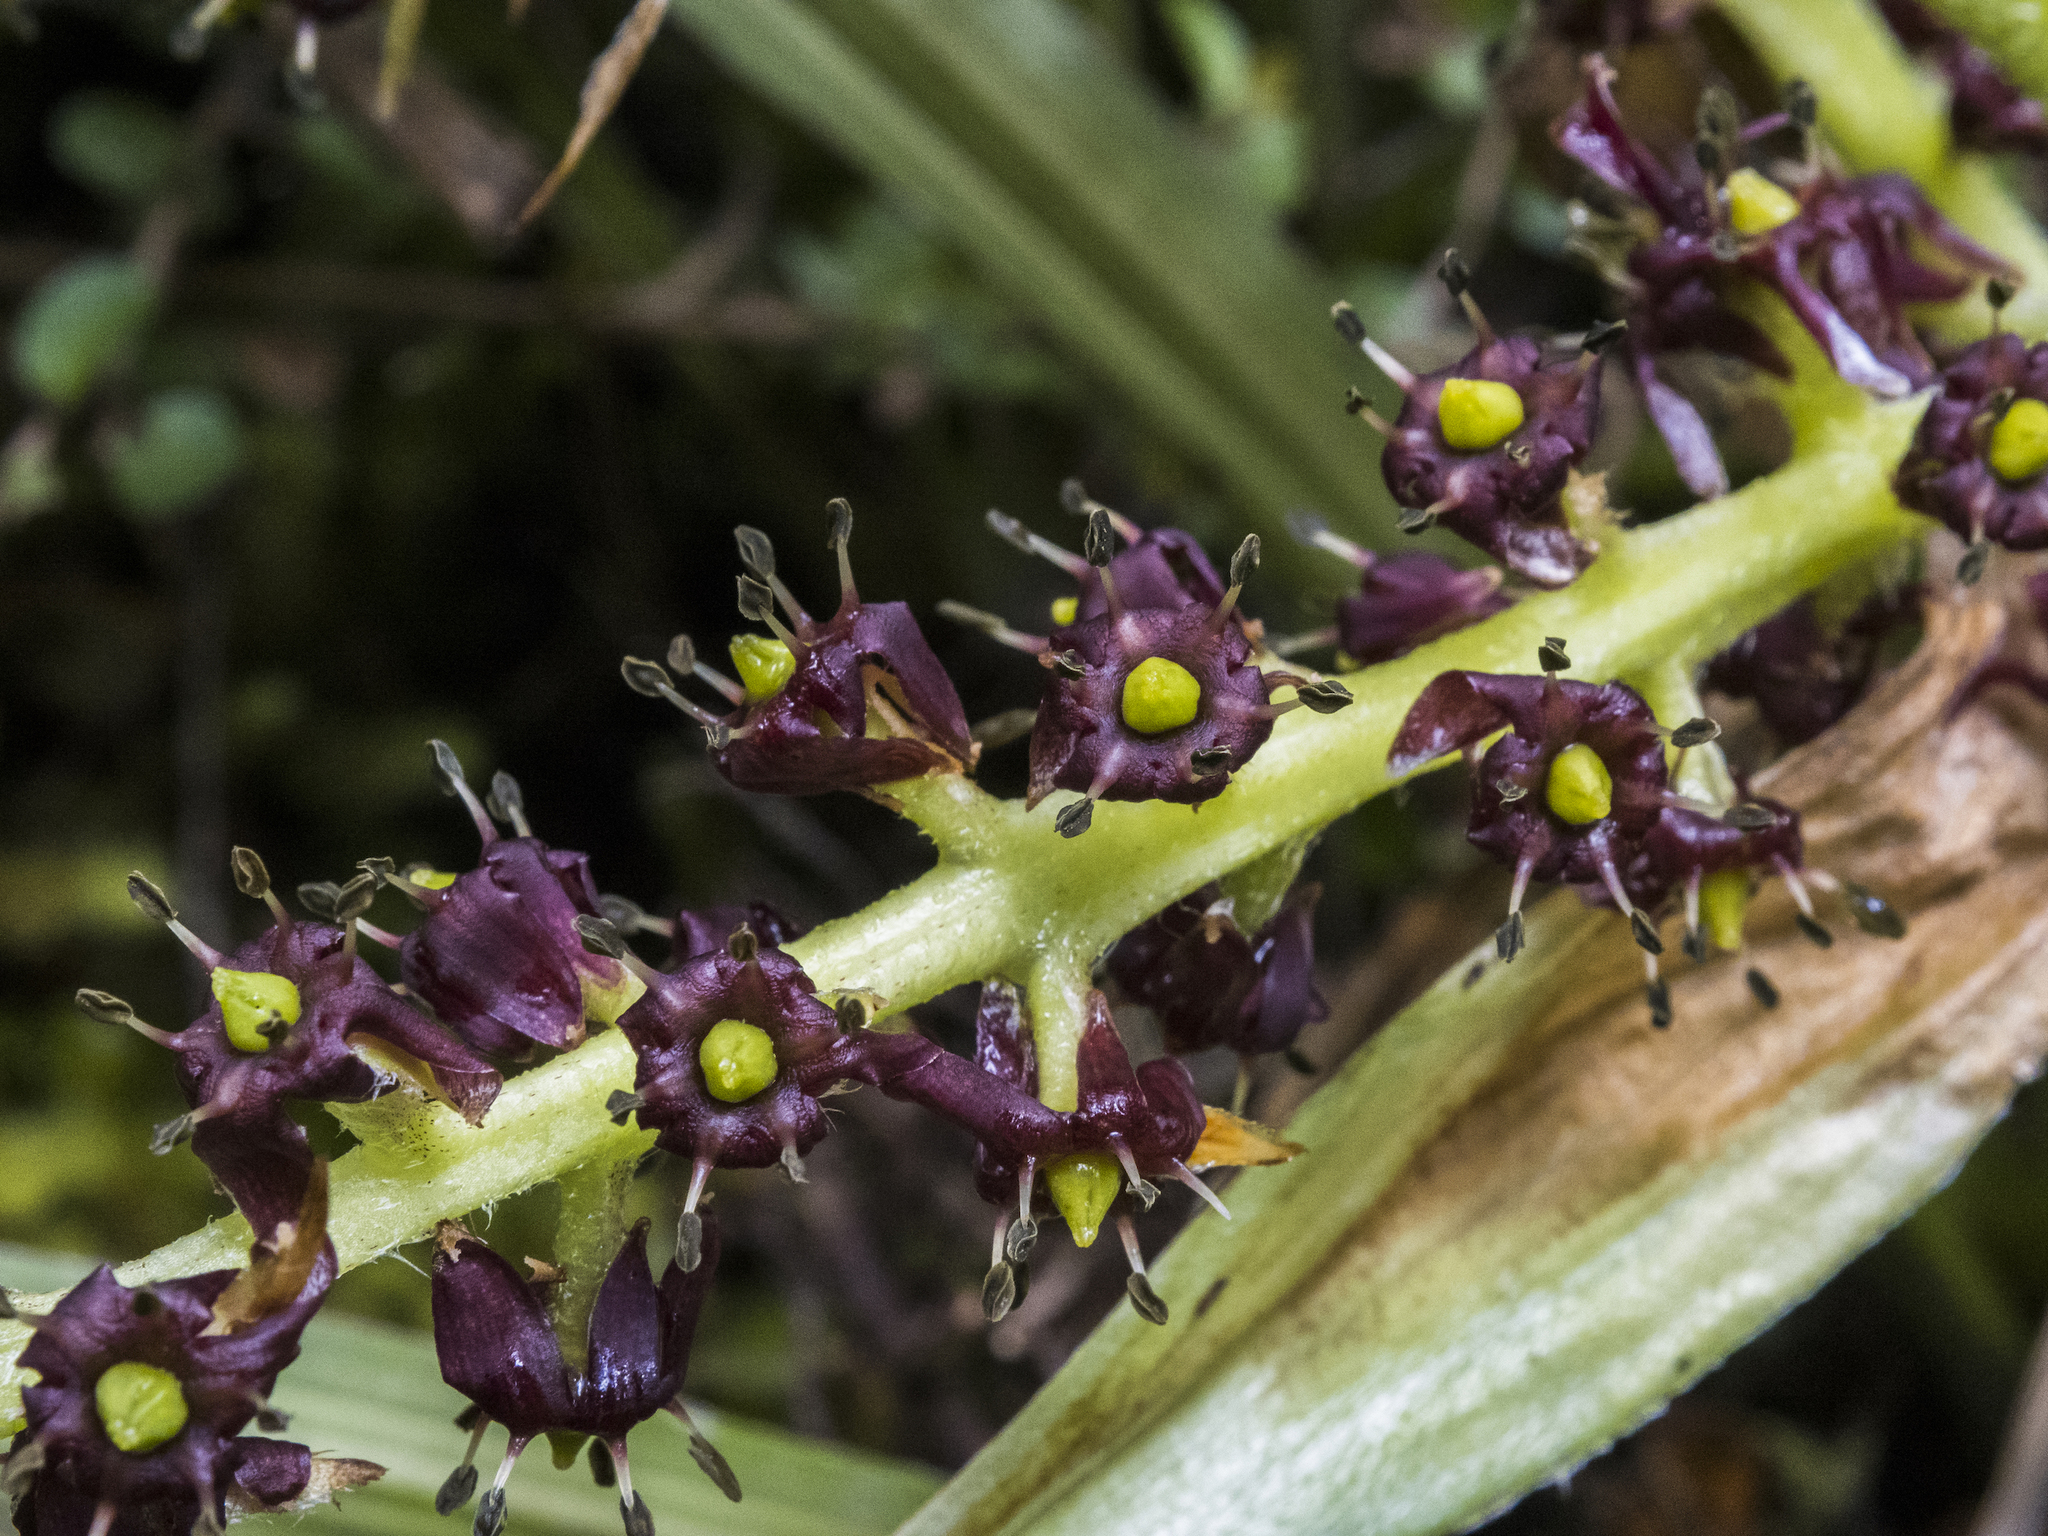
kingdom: Plantae
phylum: Tracheophyta
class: Liliopsida
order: Asparagales
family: Asteliaceae
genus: Astelia
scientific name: Astelia nervosa
